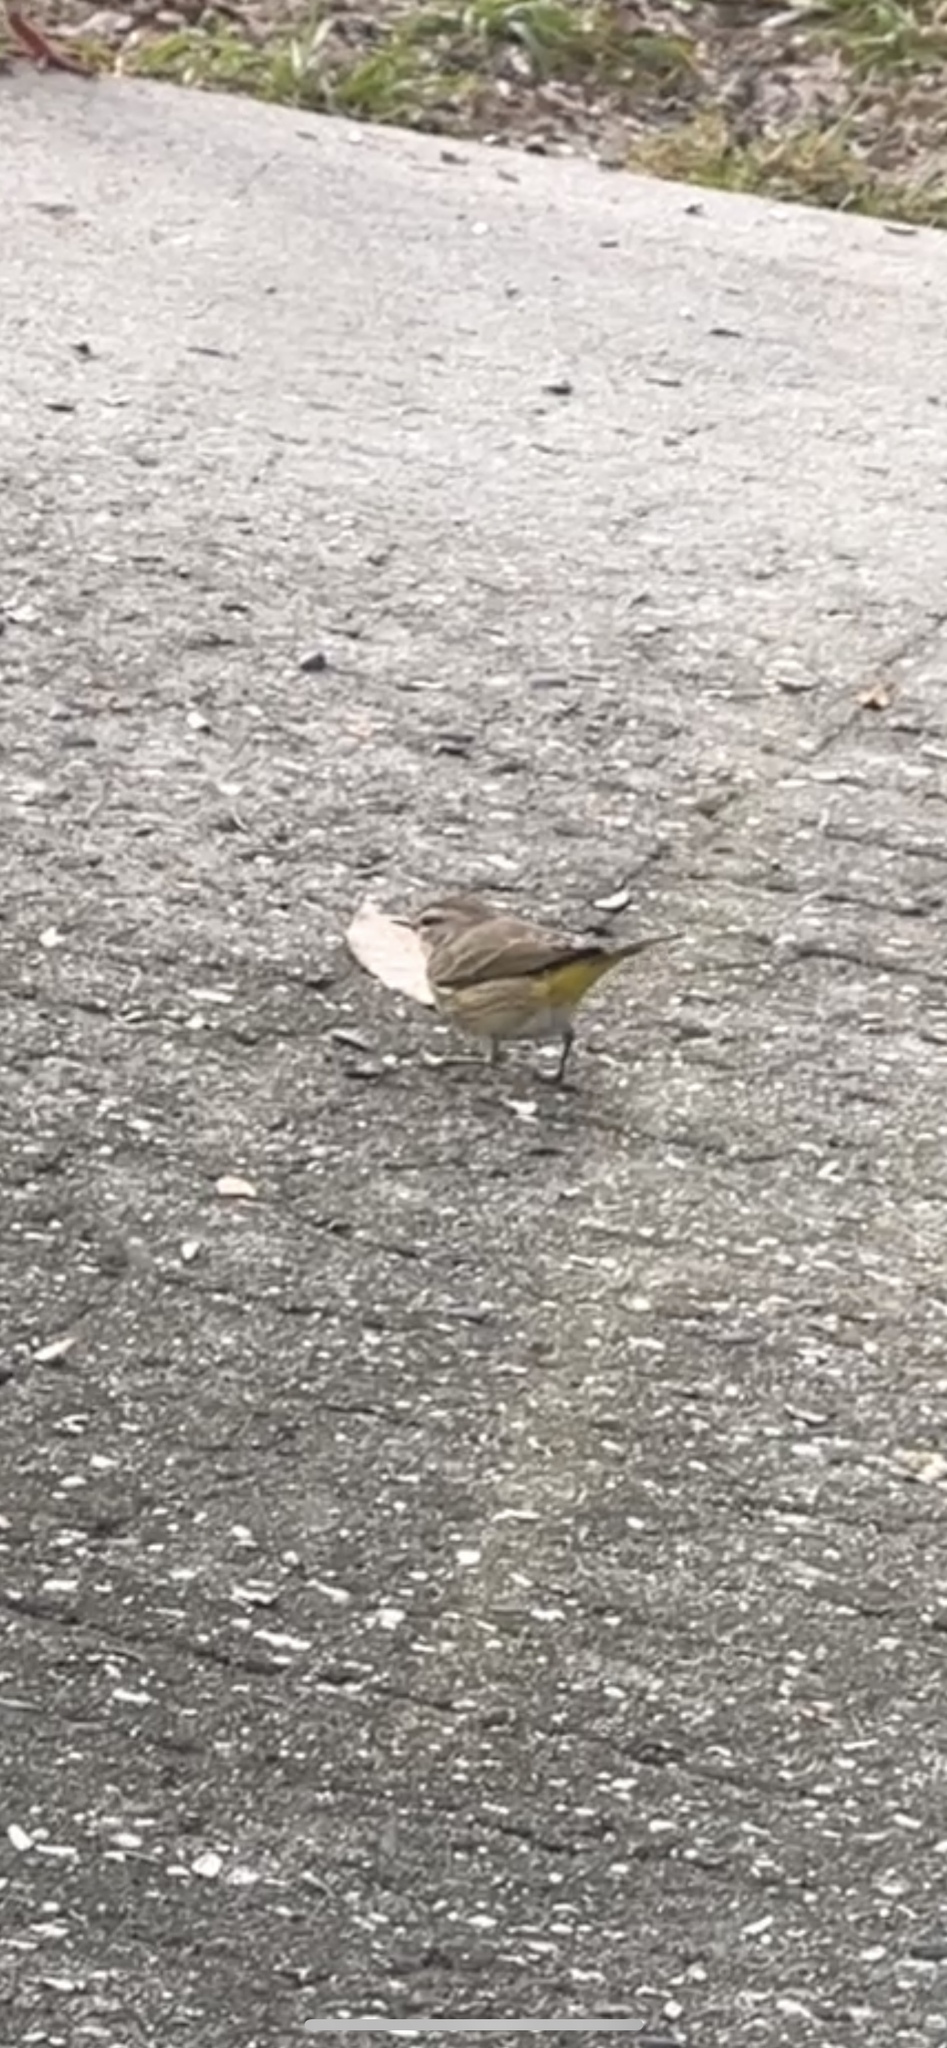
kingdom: Animalia
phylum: Chordata
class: Aves
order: Passeriformes
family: Parulidae
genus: Setophaga
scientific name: Setophaga palmarum
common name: Palm warbler
